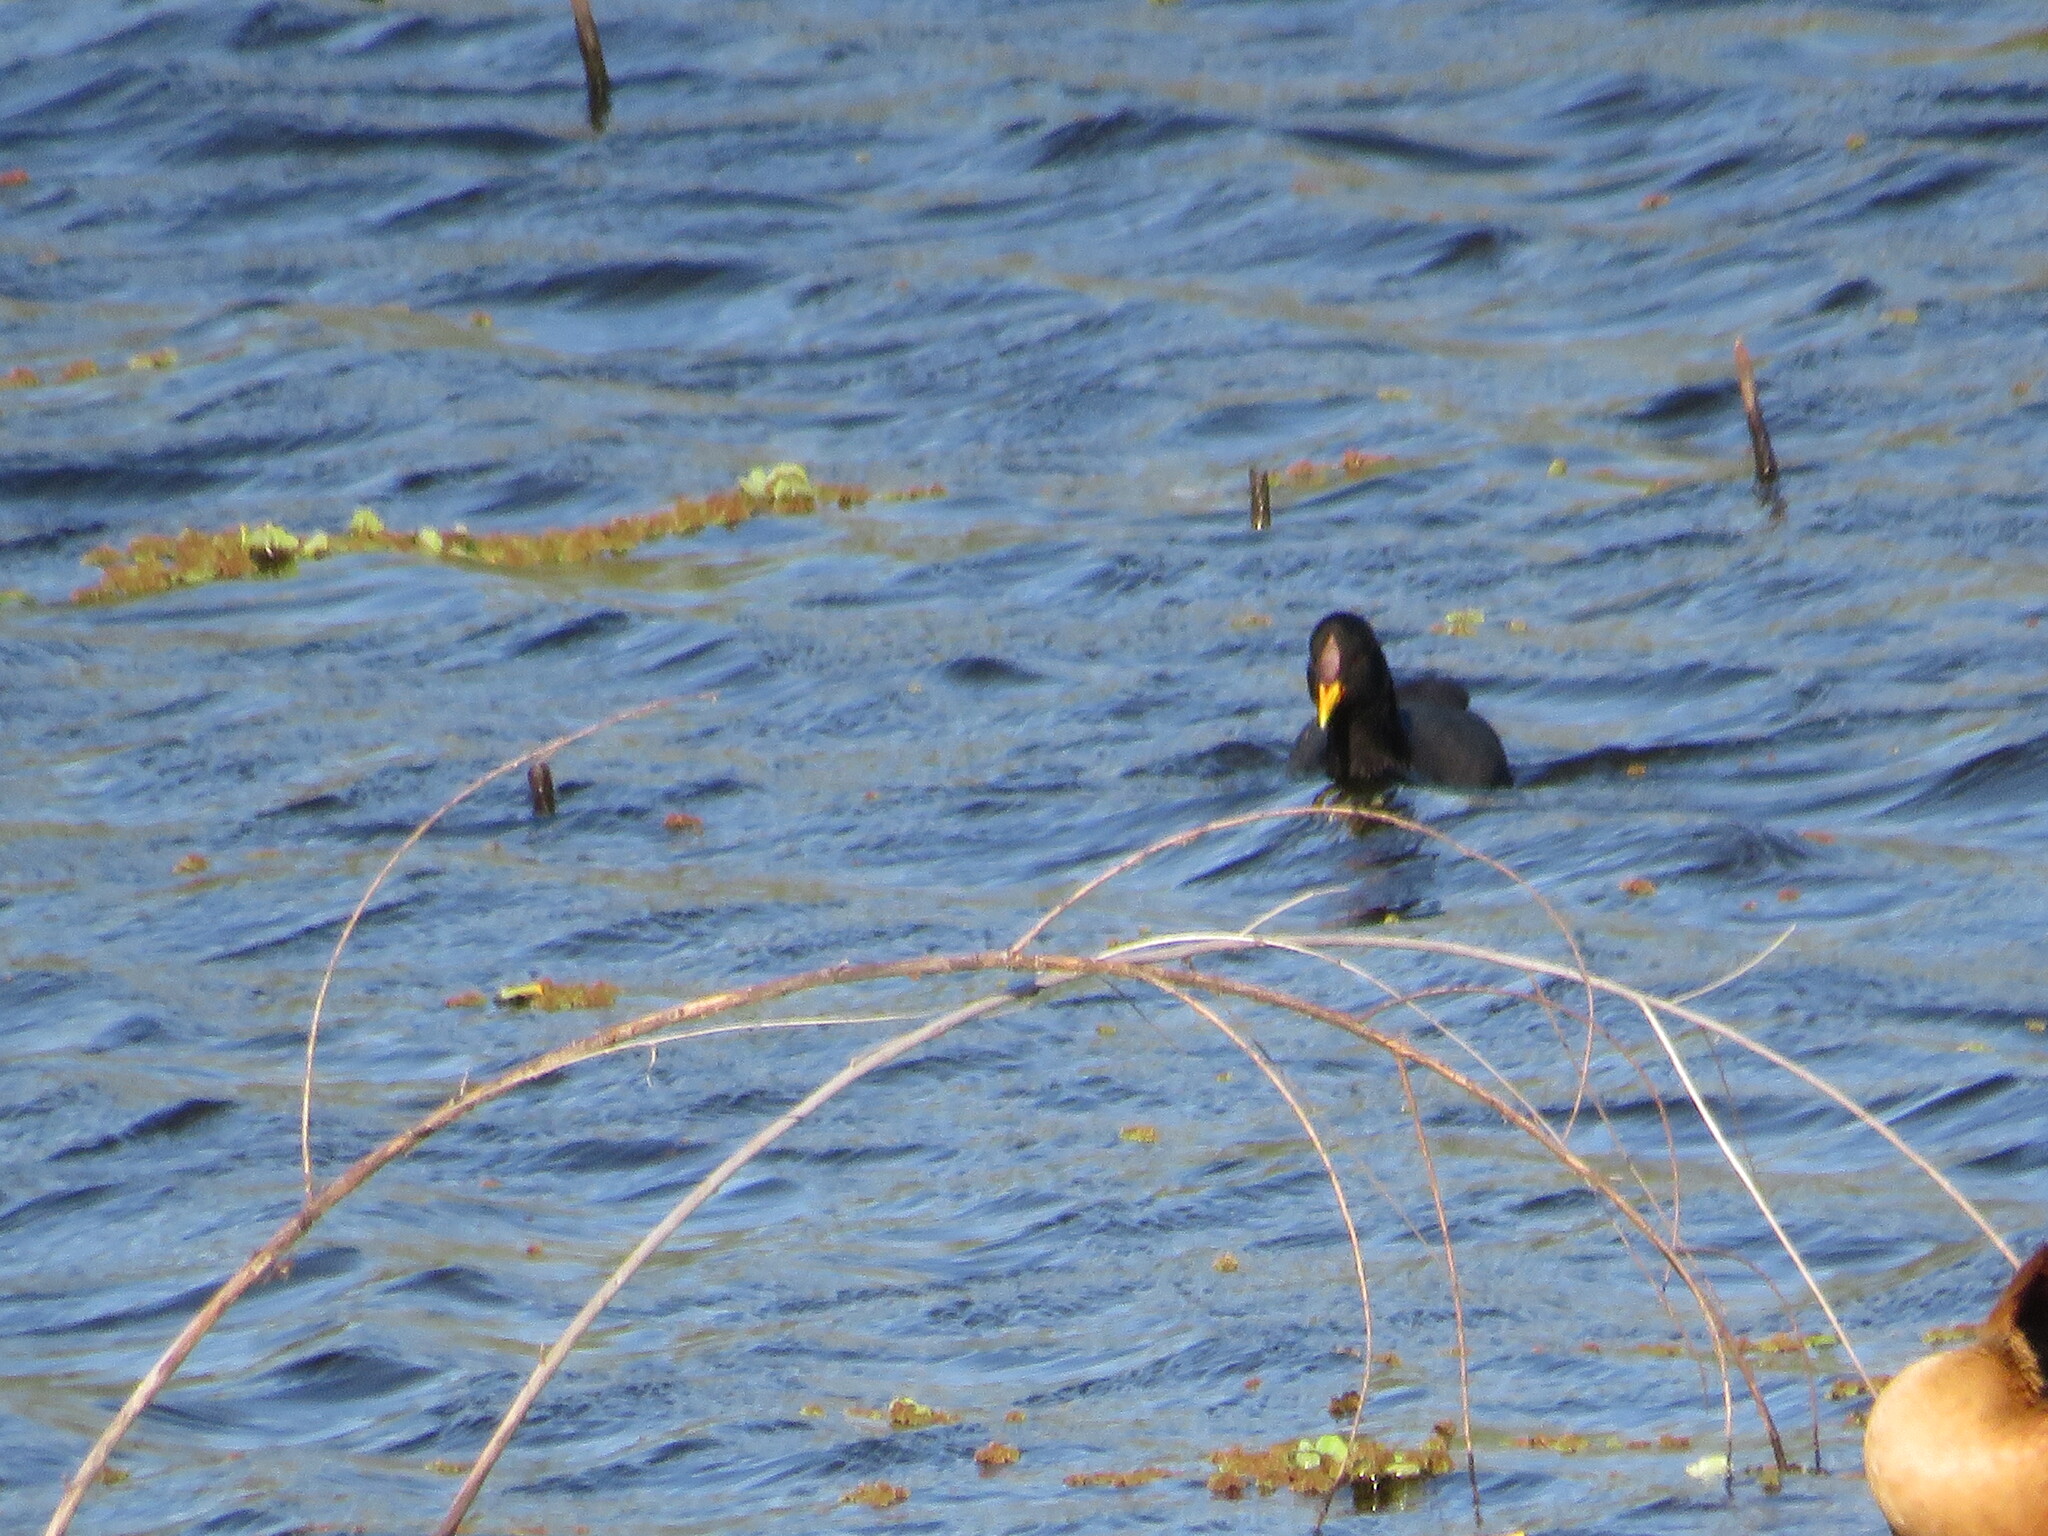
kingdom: Animalia
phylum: Chordata
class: Aves
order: Gruiformes
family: Rallidae
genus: Fulica
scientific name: Fulica rufifrons
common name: Red-fronted coot
